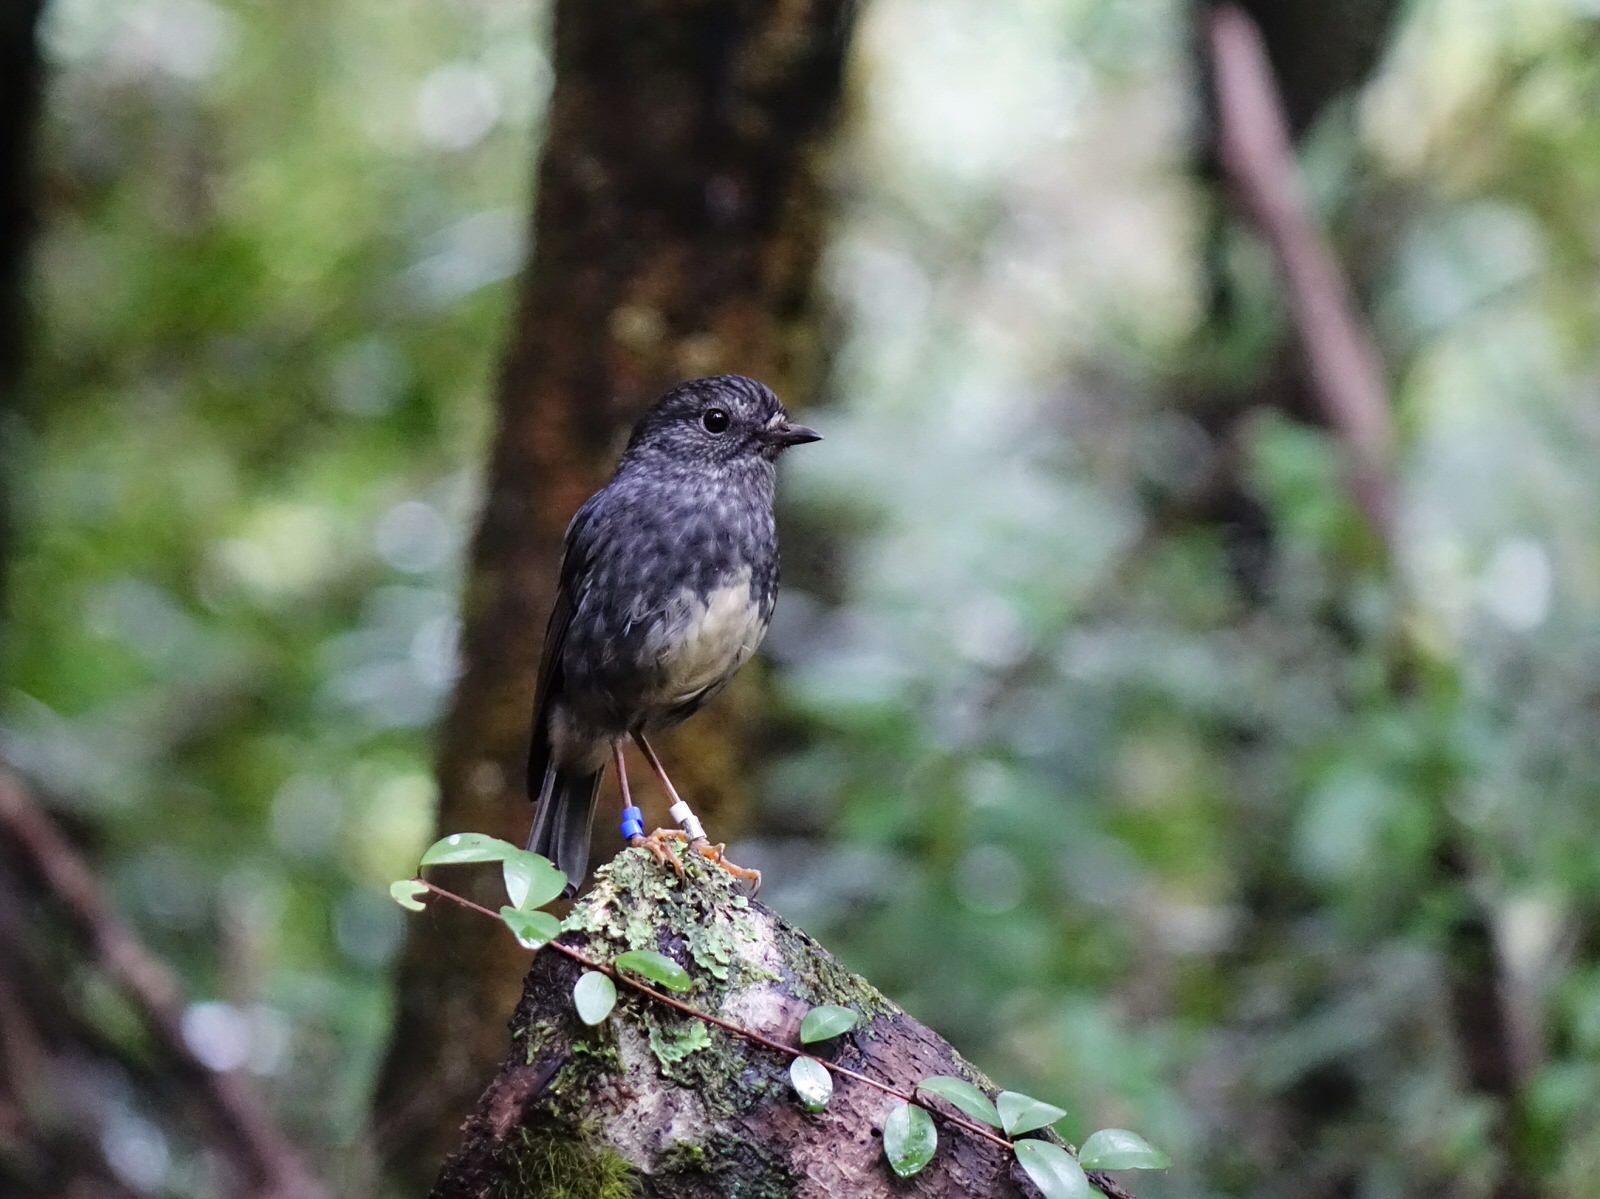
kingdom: Animalia
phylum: Chordata
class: Aves
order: Passeriformes
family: Petroicidae
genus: Petroica
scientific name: Petroica australis
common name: New zealand robin
